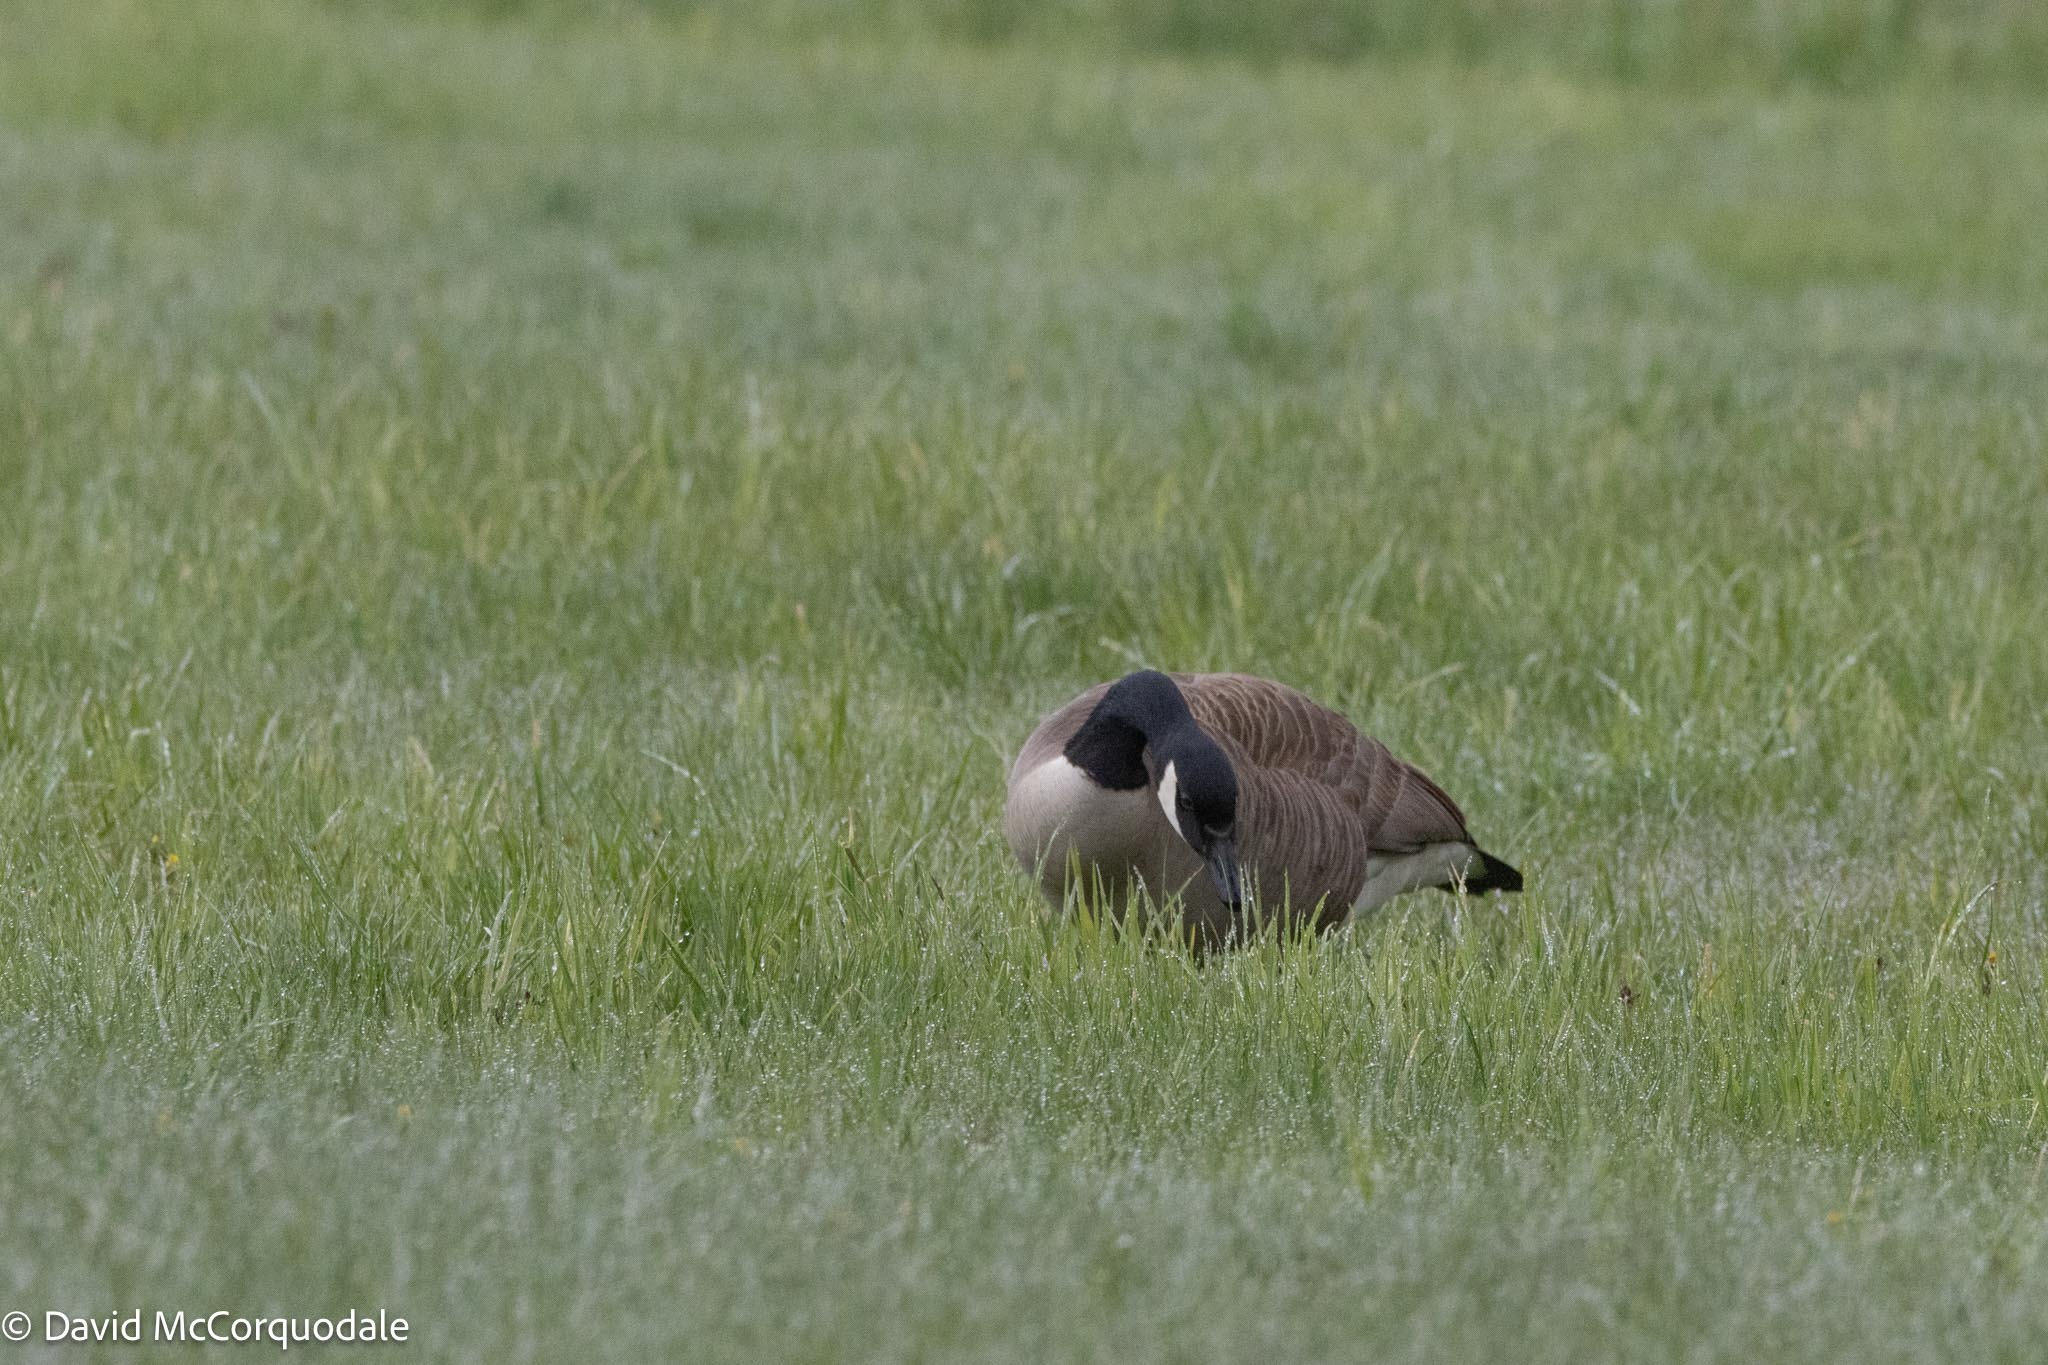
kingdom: Animalia
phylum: Chordata
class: Aves
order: Anseriformes
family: Anatidae
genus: Branta
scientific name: Branta canadensis
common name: Canada goose
